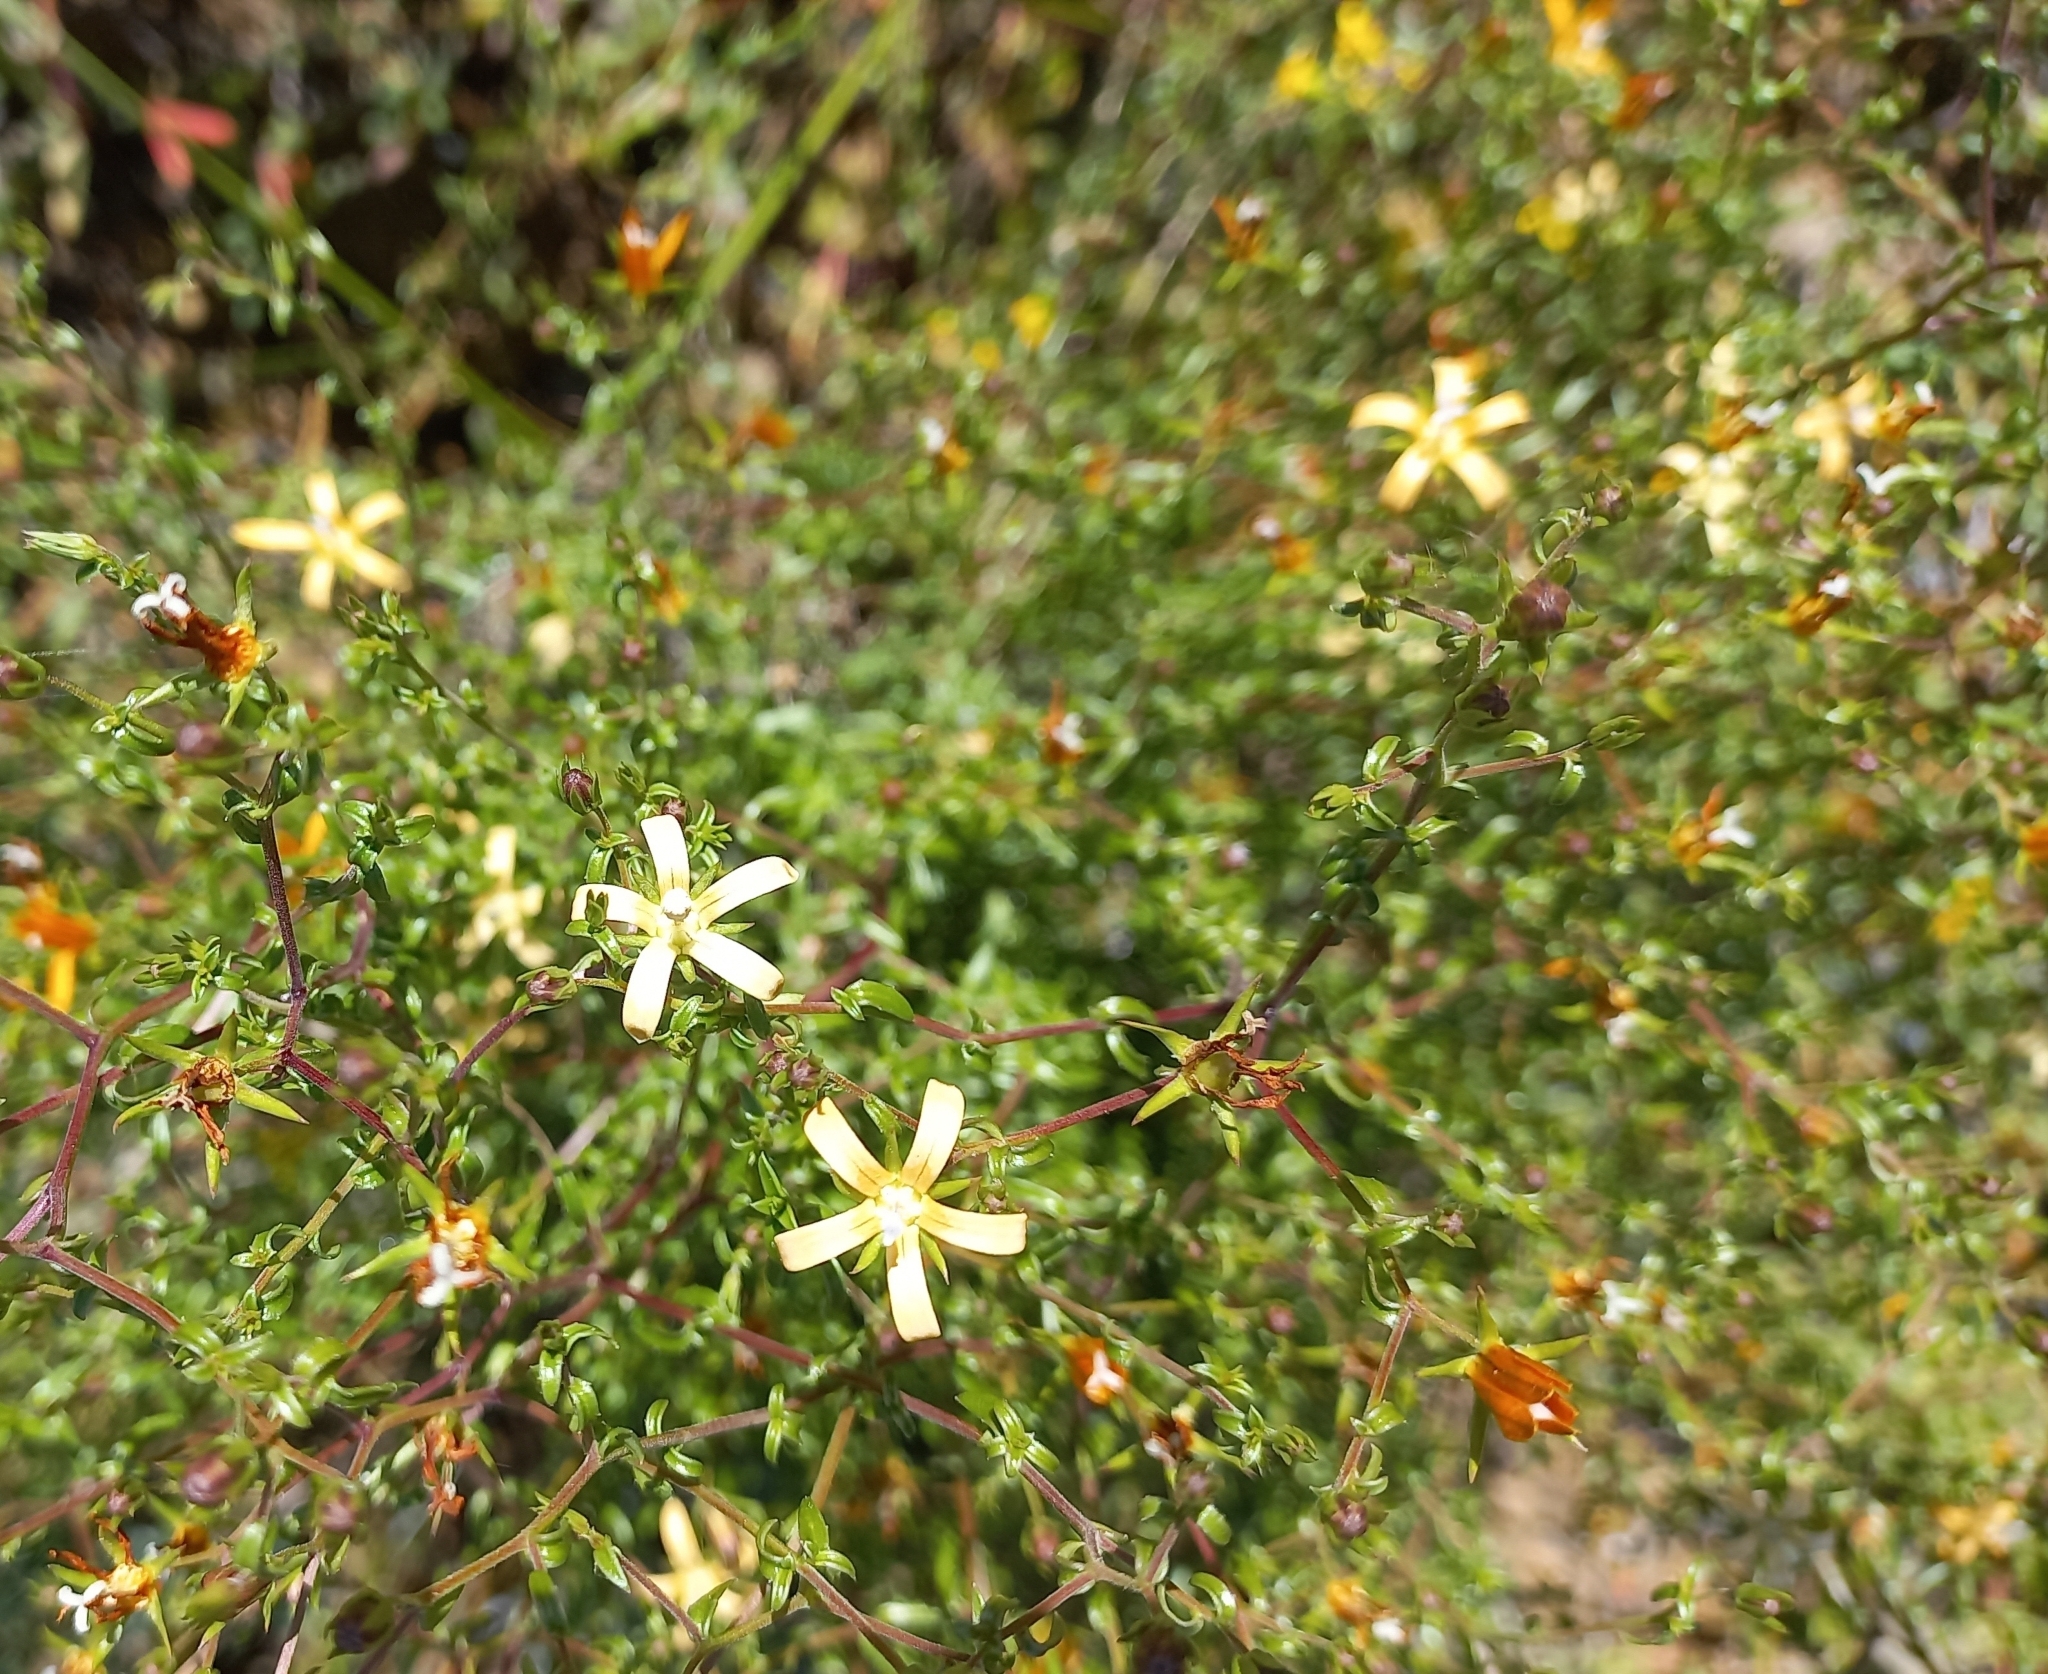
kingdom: Plantae
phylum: Tracheophyta
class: Magnoliopsida
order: Asterales
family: Campanulaceae
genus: Wahlenbergia
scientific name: Wahlenbergia nodosa
